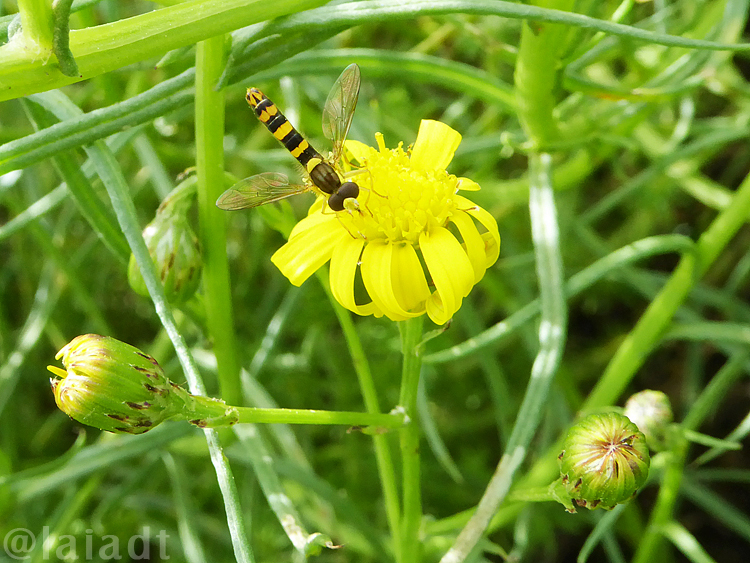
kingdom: Animalia
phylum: Arthropoda
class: Insecta
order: Diptera
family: Syrphidae
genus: Sphaerophoria
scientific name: Sphaerophoria scripta
